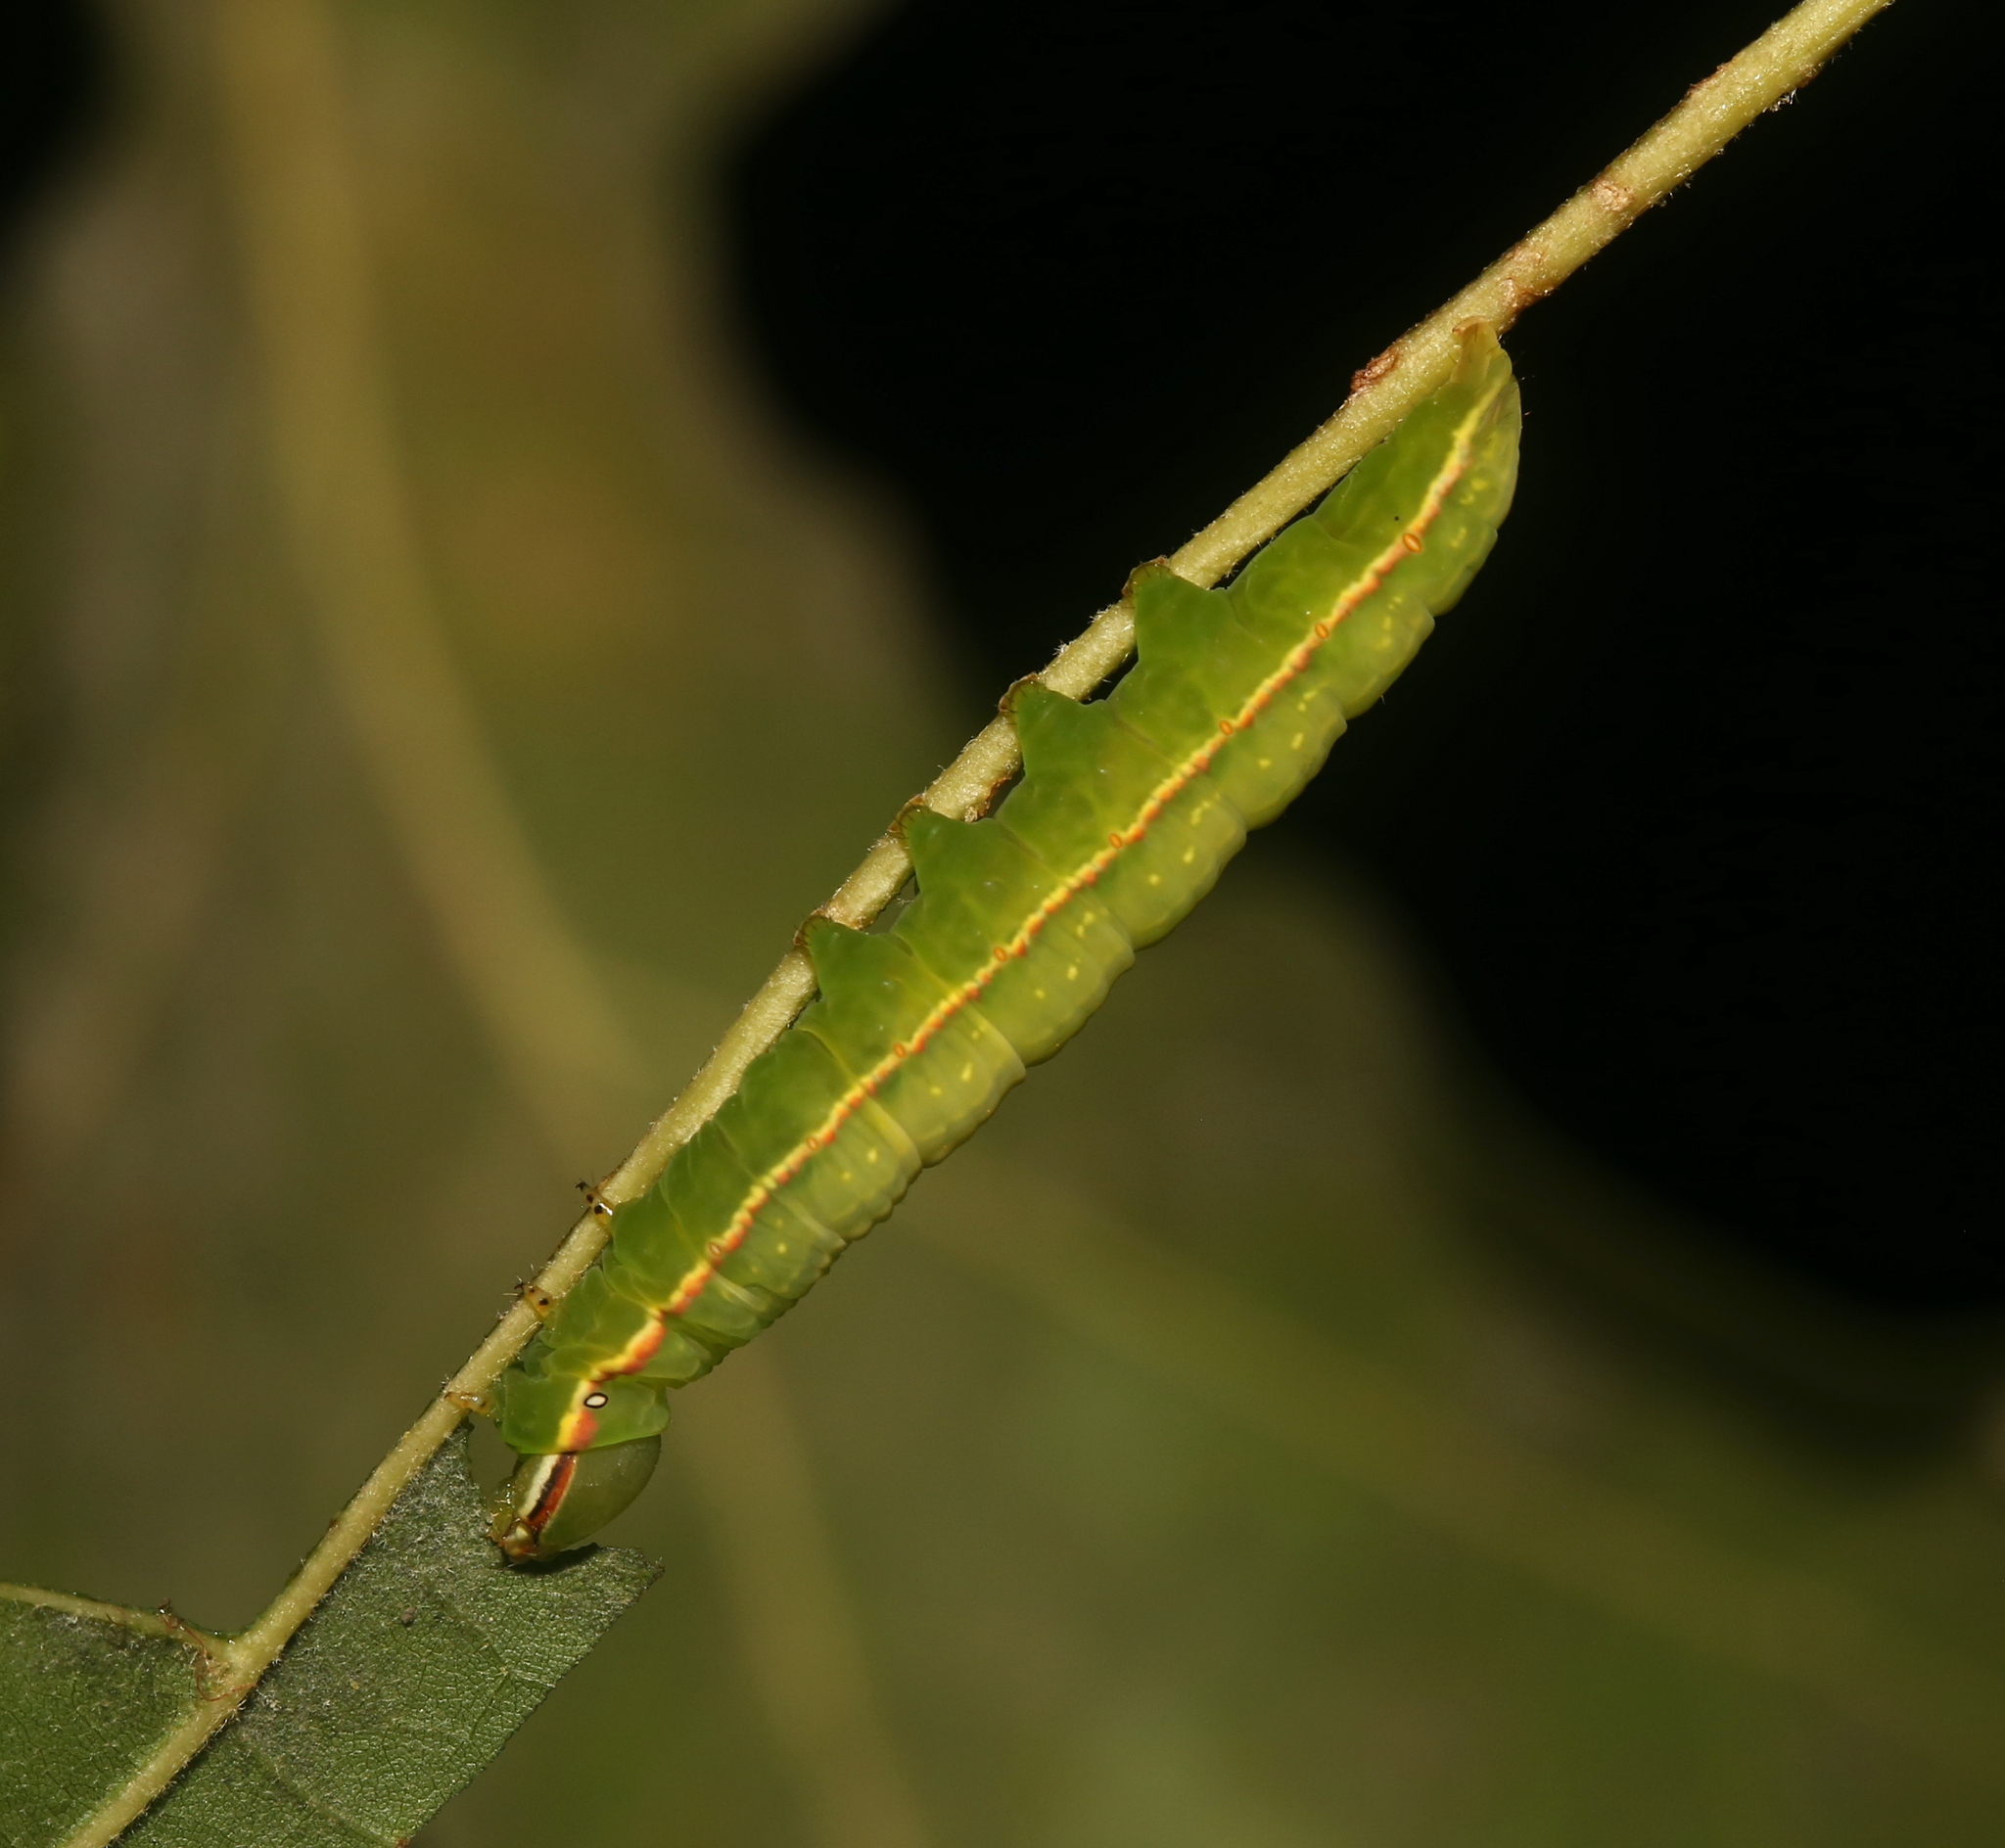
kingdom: Animalia
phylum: Arthropoda
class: Insecta
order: Lepidoptera
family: Notodontidae
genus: Peridea
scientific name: Peridea angulosa
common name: Angulose prominent
